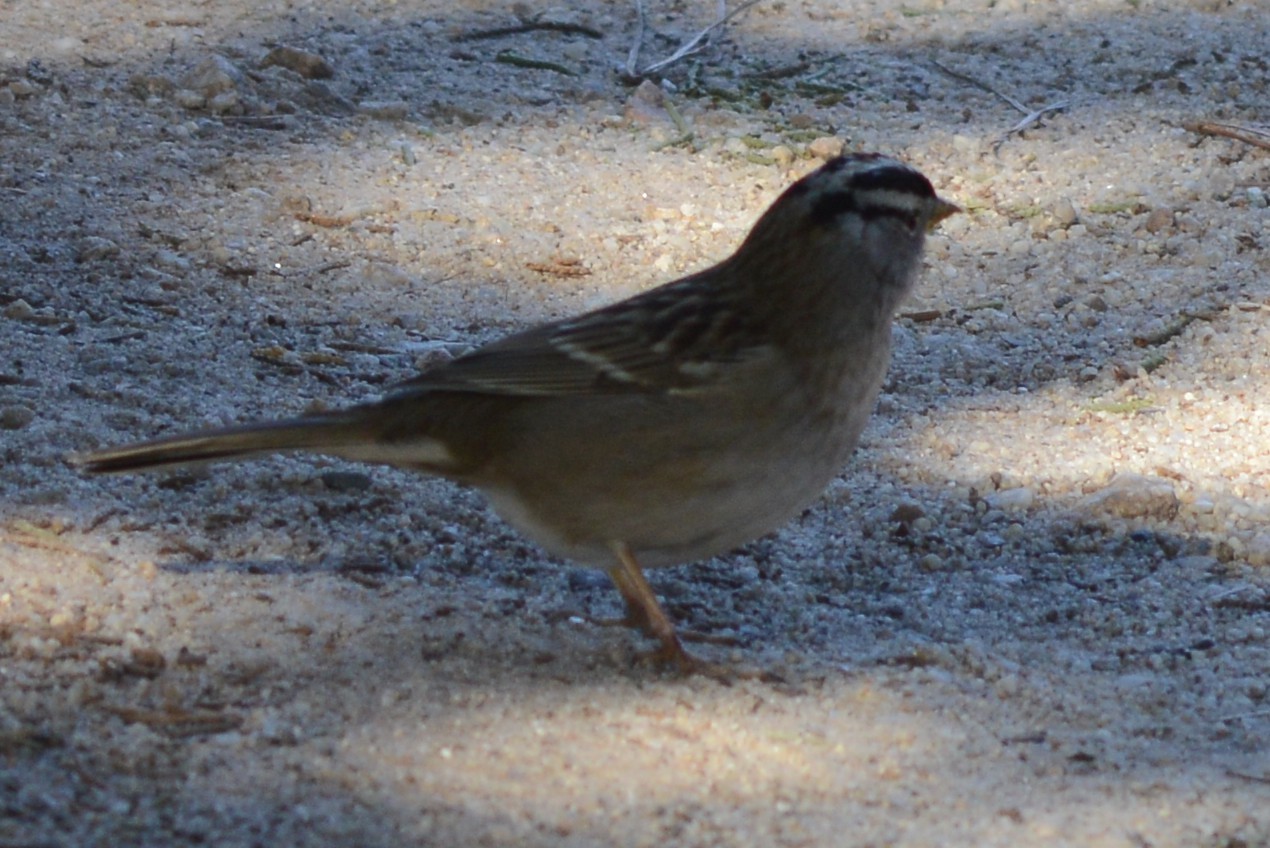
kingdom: Animalia
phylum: Chordata
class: Aves
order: Passeriformes
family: Passerellidae
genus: Zonotrichia
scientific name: Zonotrichia leucophrys
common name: White-crowned sparrow
